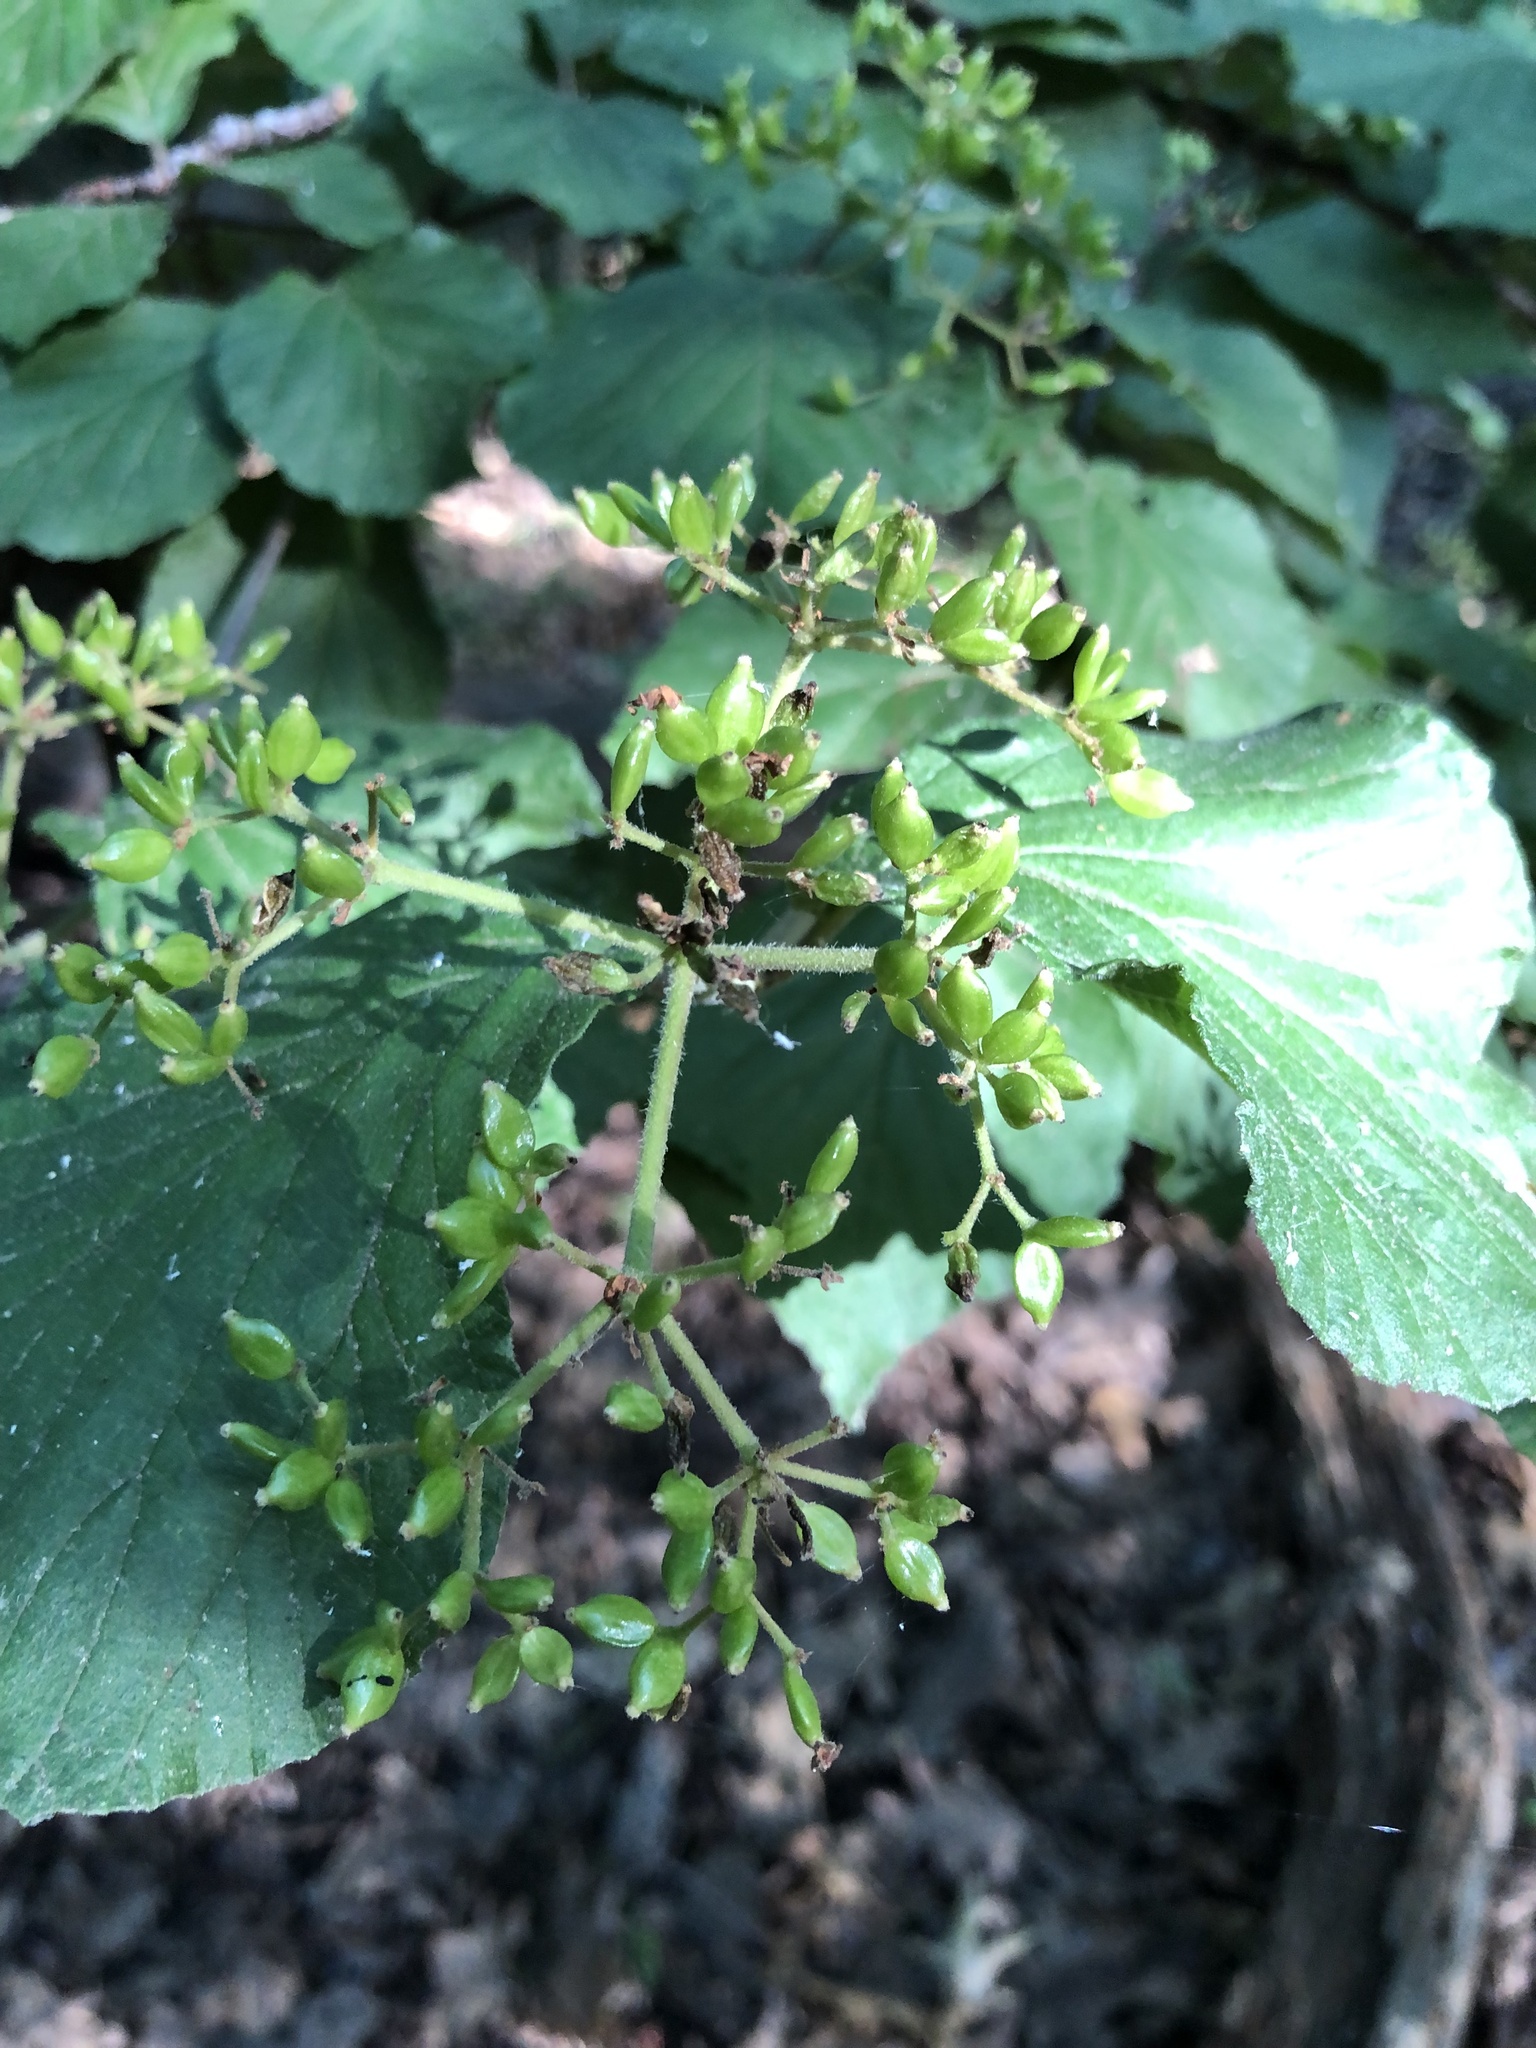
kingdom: Plantae
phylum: Tracheophyta
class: Magnoliopsida
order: Dipsacales
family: Viburnaceae
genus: Viburnum
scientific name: Viburnum dilatatum
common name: Linden arrowwood
